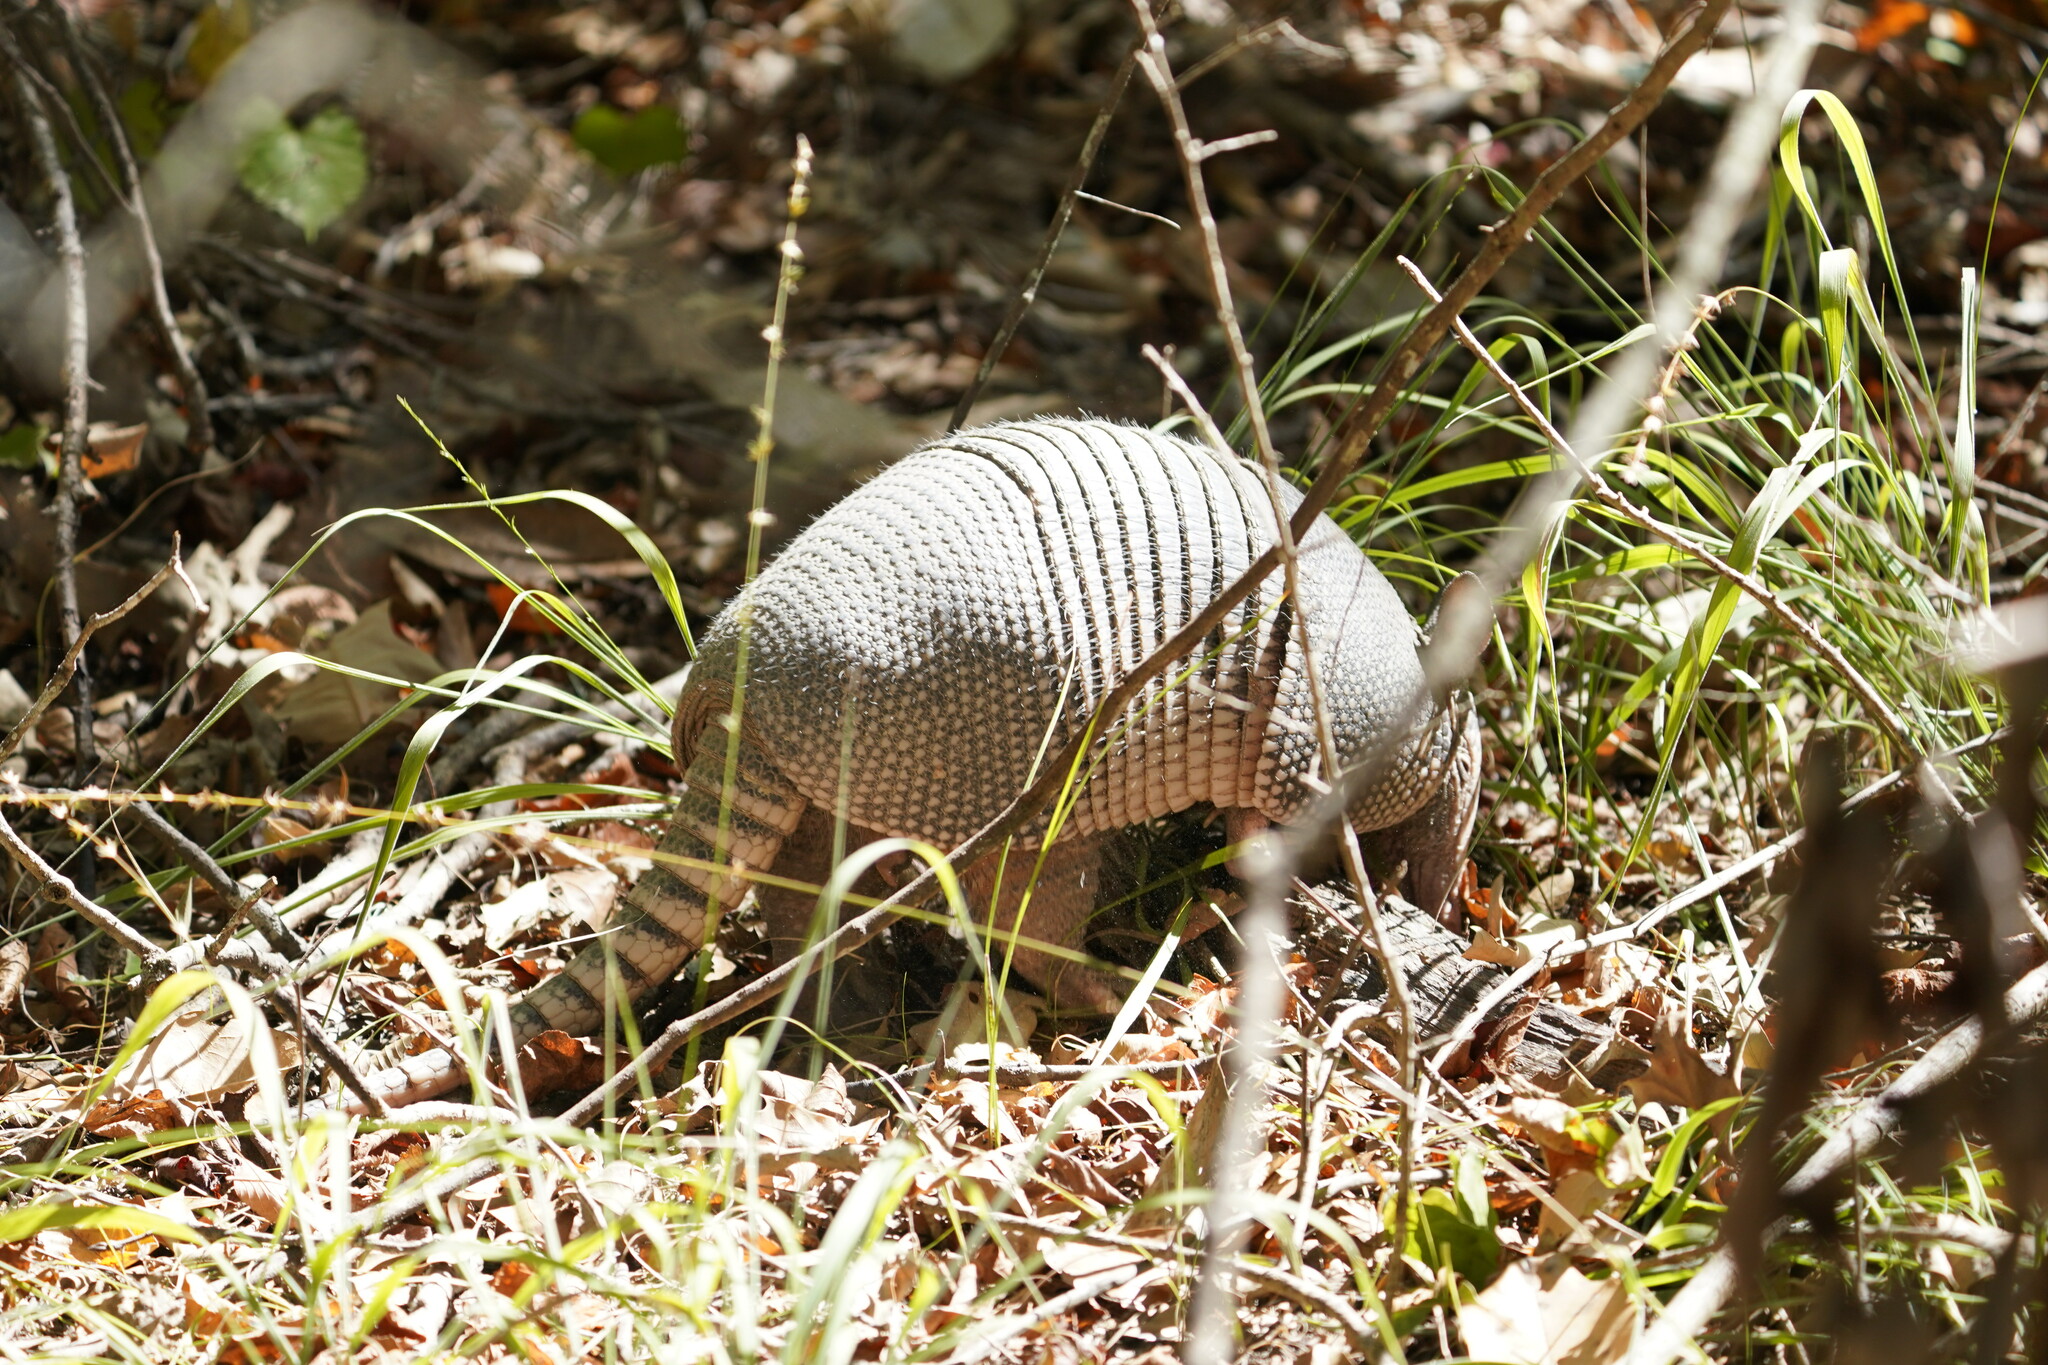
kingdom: Animalia
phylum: Chordata
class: Mammalia
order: Cingulata
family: Dasypodidae
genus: Dasypus
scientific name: Dasypus novemcinctus
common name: Nine-banded armadillo
